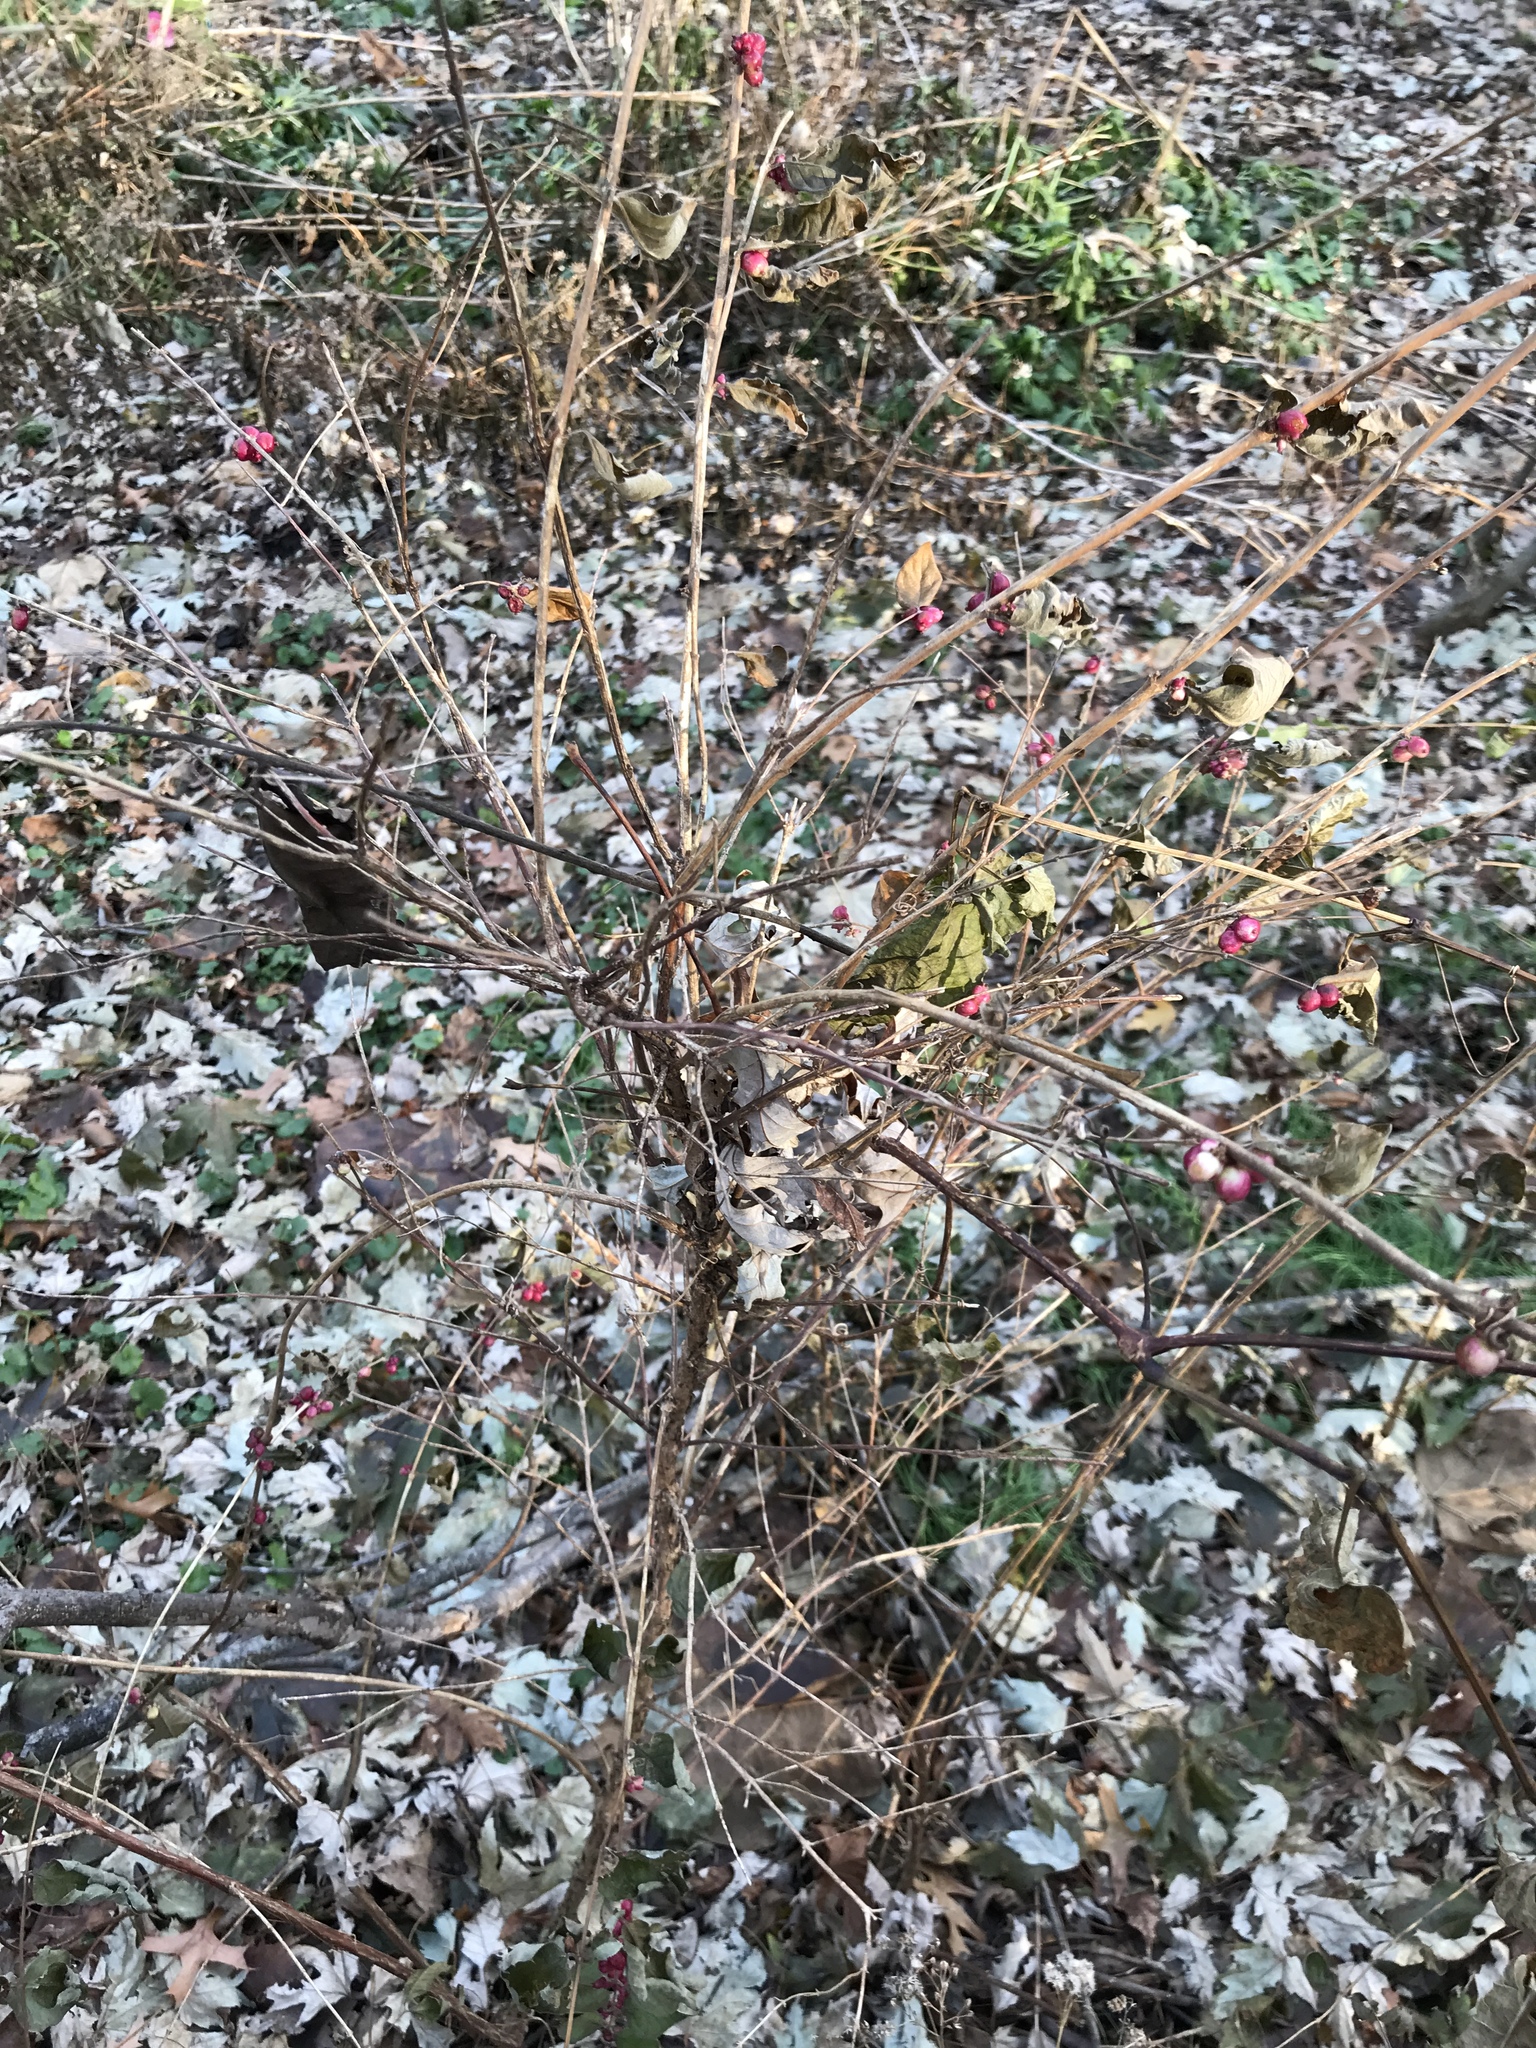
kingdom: Plantae
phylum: Tracheophyta
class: Magnoliopsida
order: Dipsacales
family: Caprifoliaceae
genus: Symphoricarpos
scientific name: Symphoricarpos orbiculatus
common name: Coralberry
